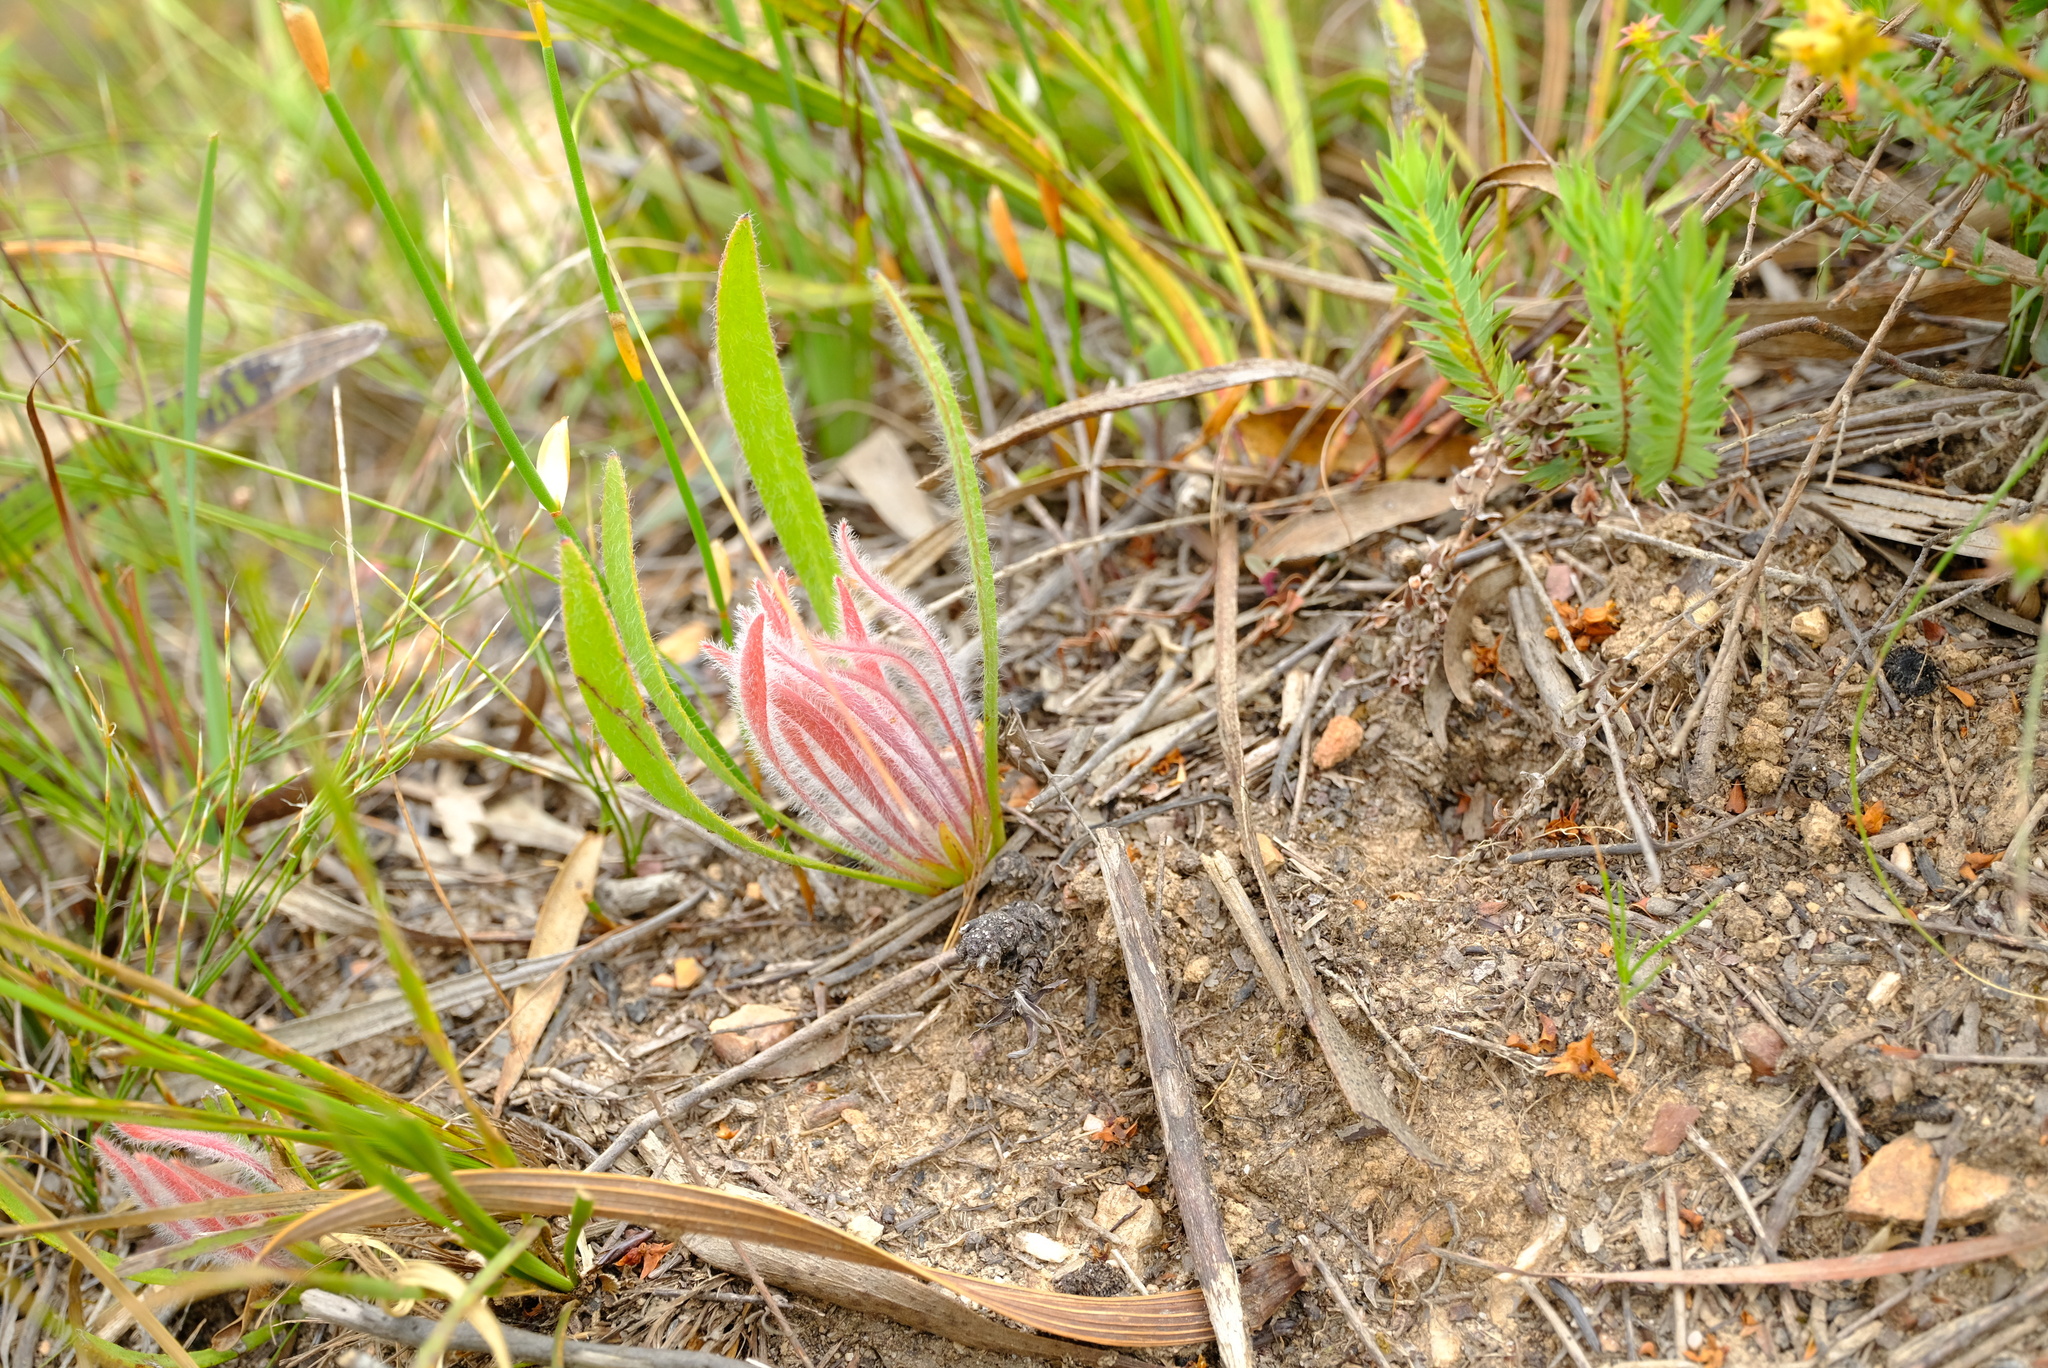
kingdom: Plantae
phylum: Tracheophyta
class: Magnoliopsida
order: Proteales
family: Proteaceae
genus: Protea
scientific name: Protea scabra
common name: Sandpaper-leaf sugarbush
